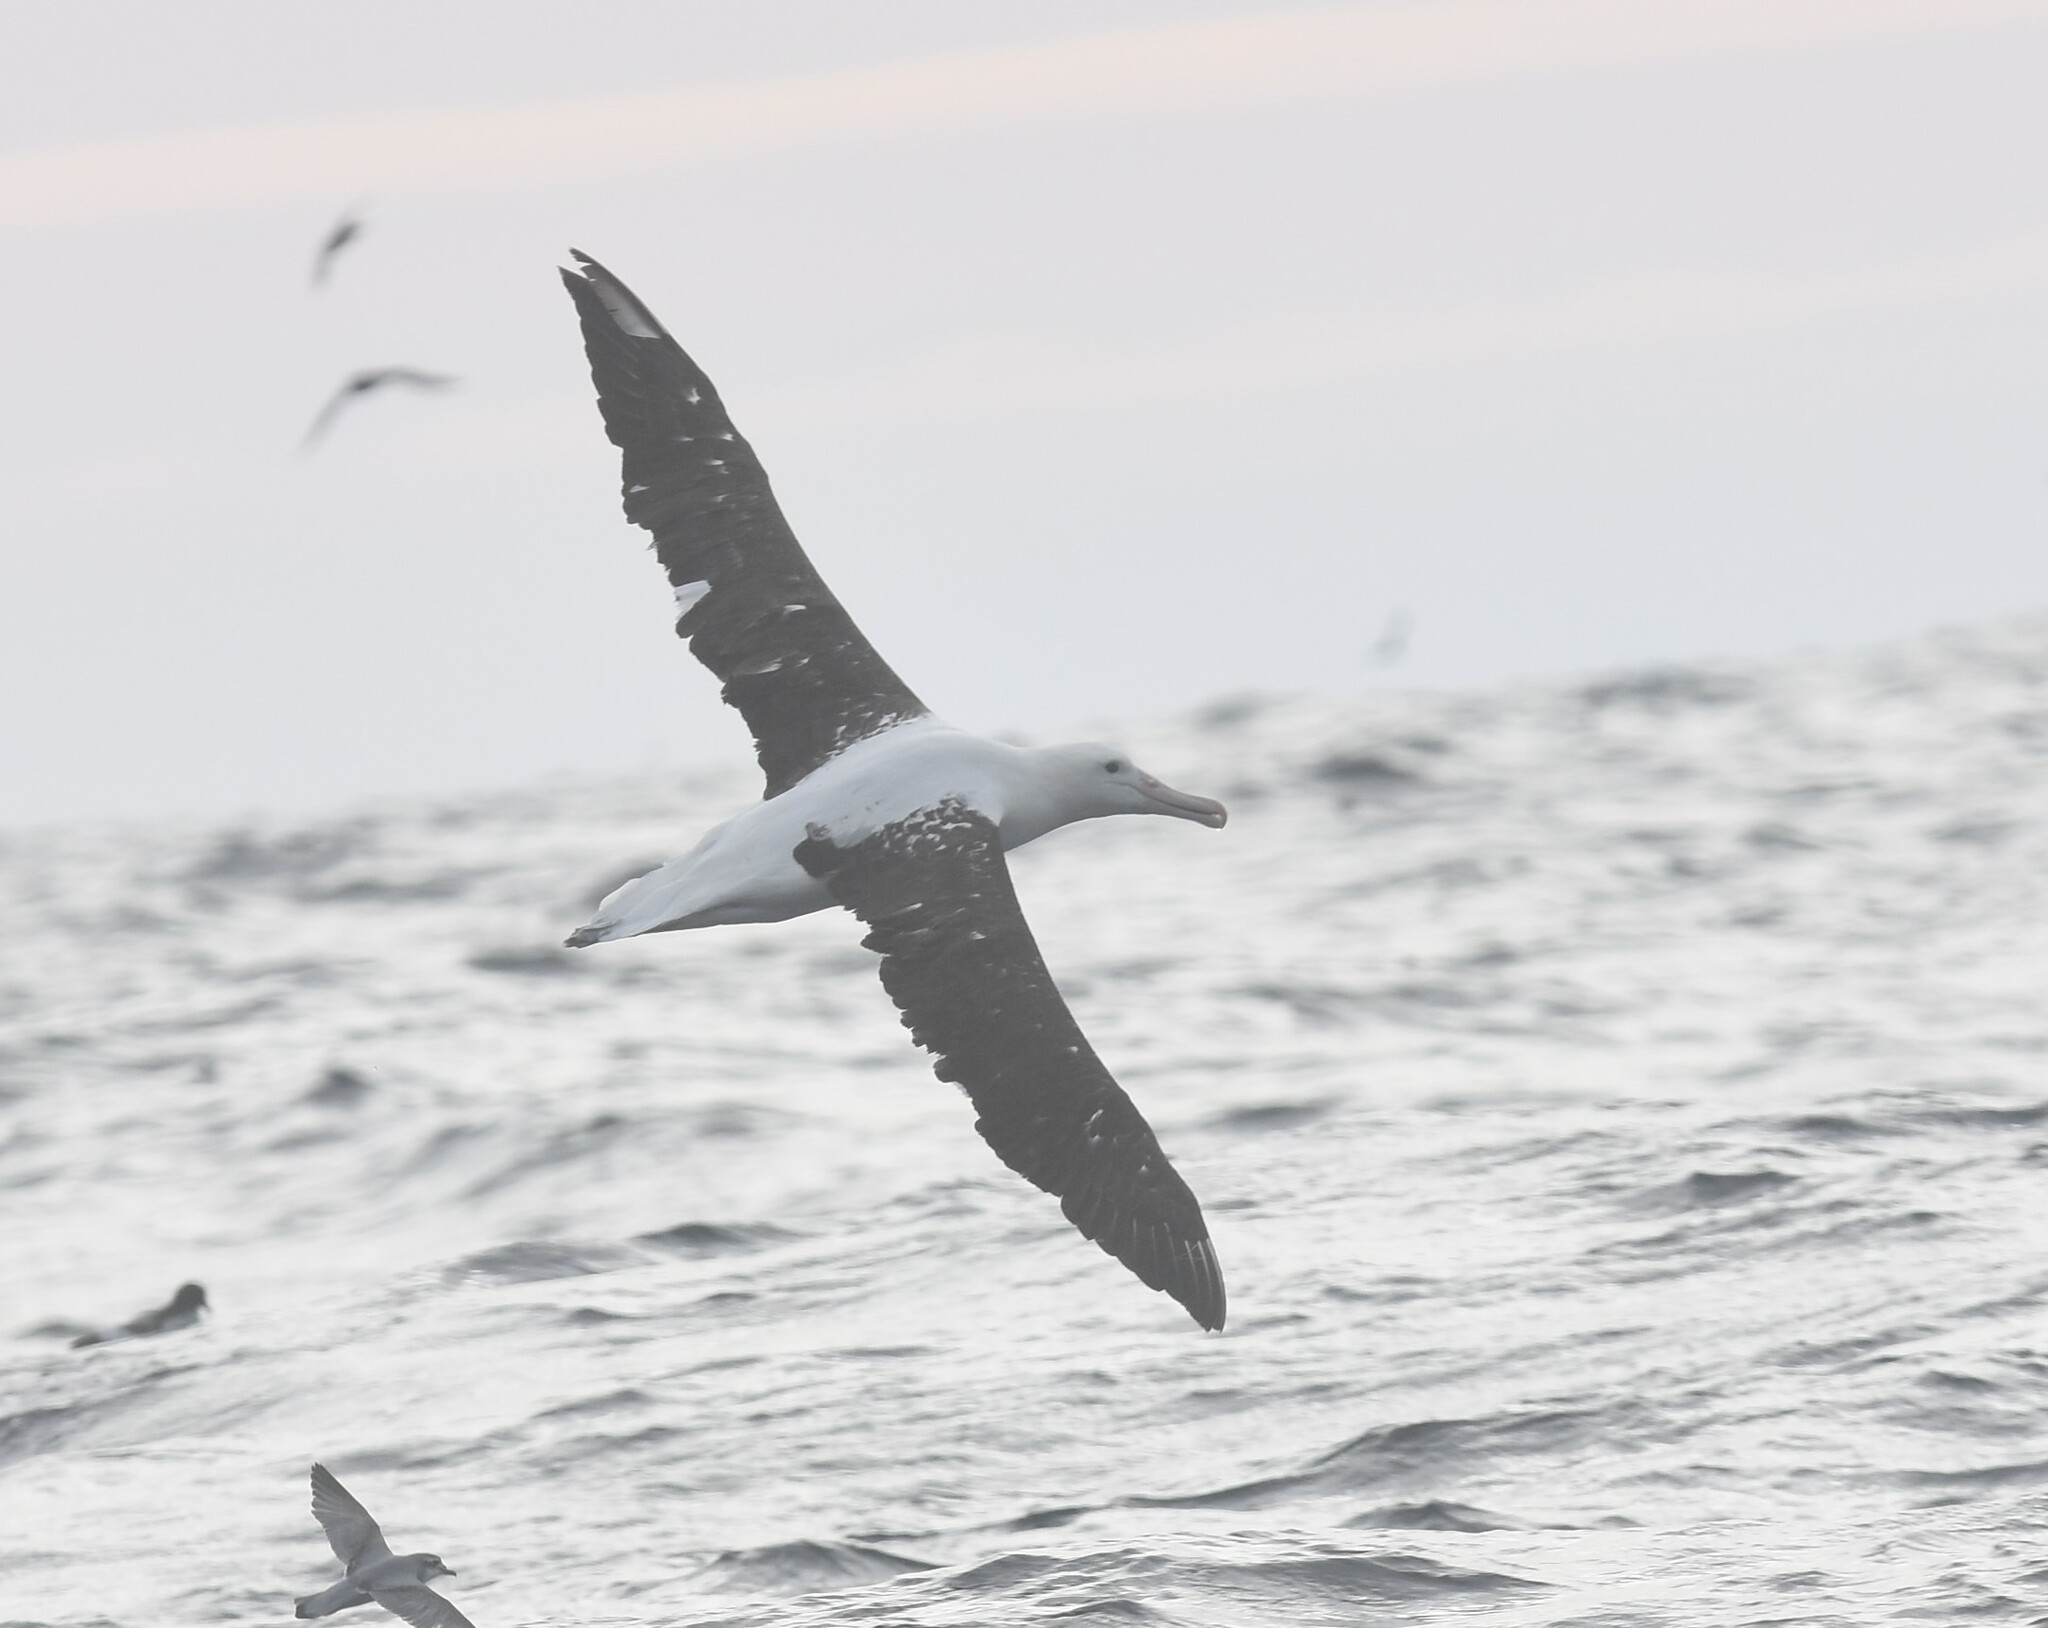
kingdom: Animalia
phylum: Chordata
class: Aves
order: Procellariiformes
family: Diomedeidae
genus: Diomedea
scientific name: Diomedea sanfordi
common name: Northern royal albatross
